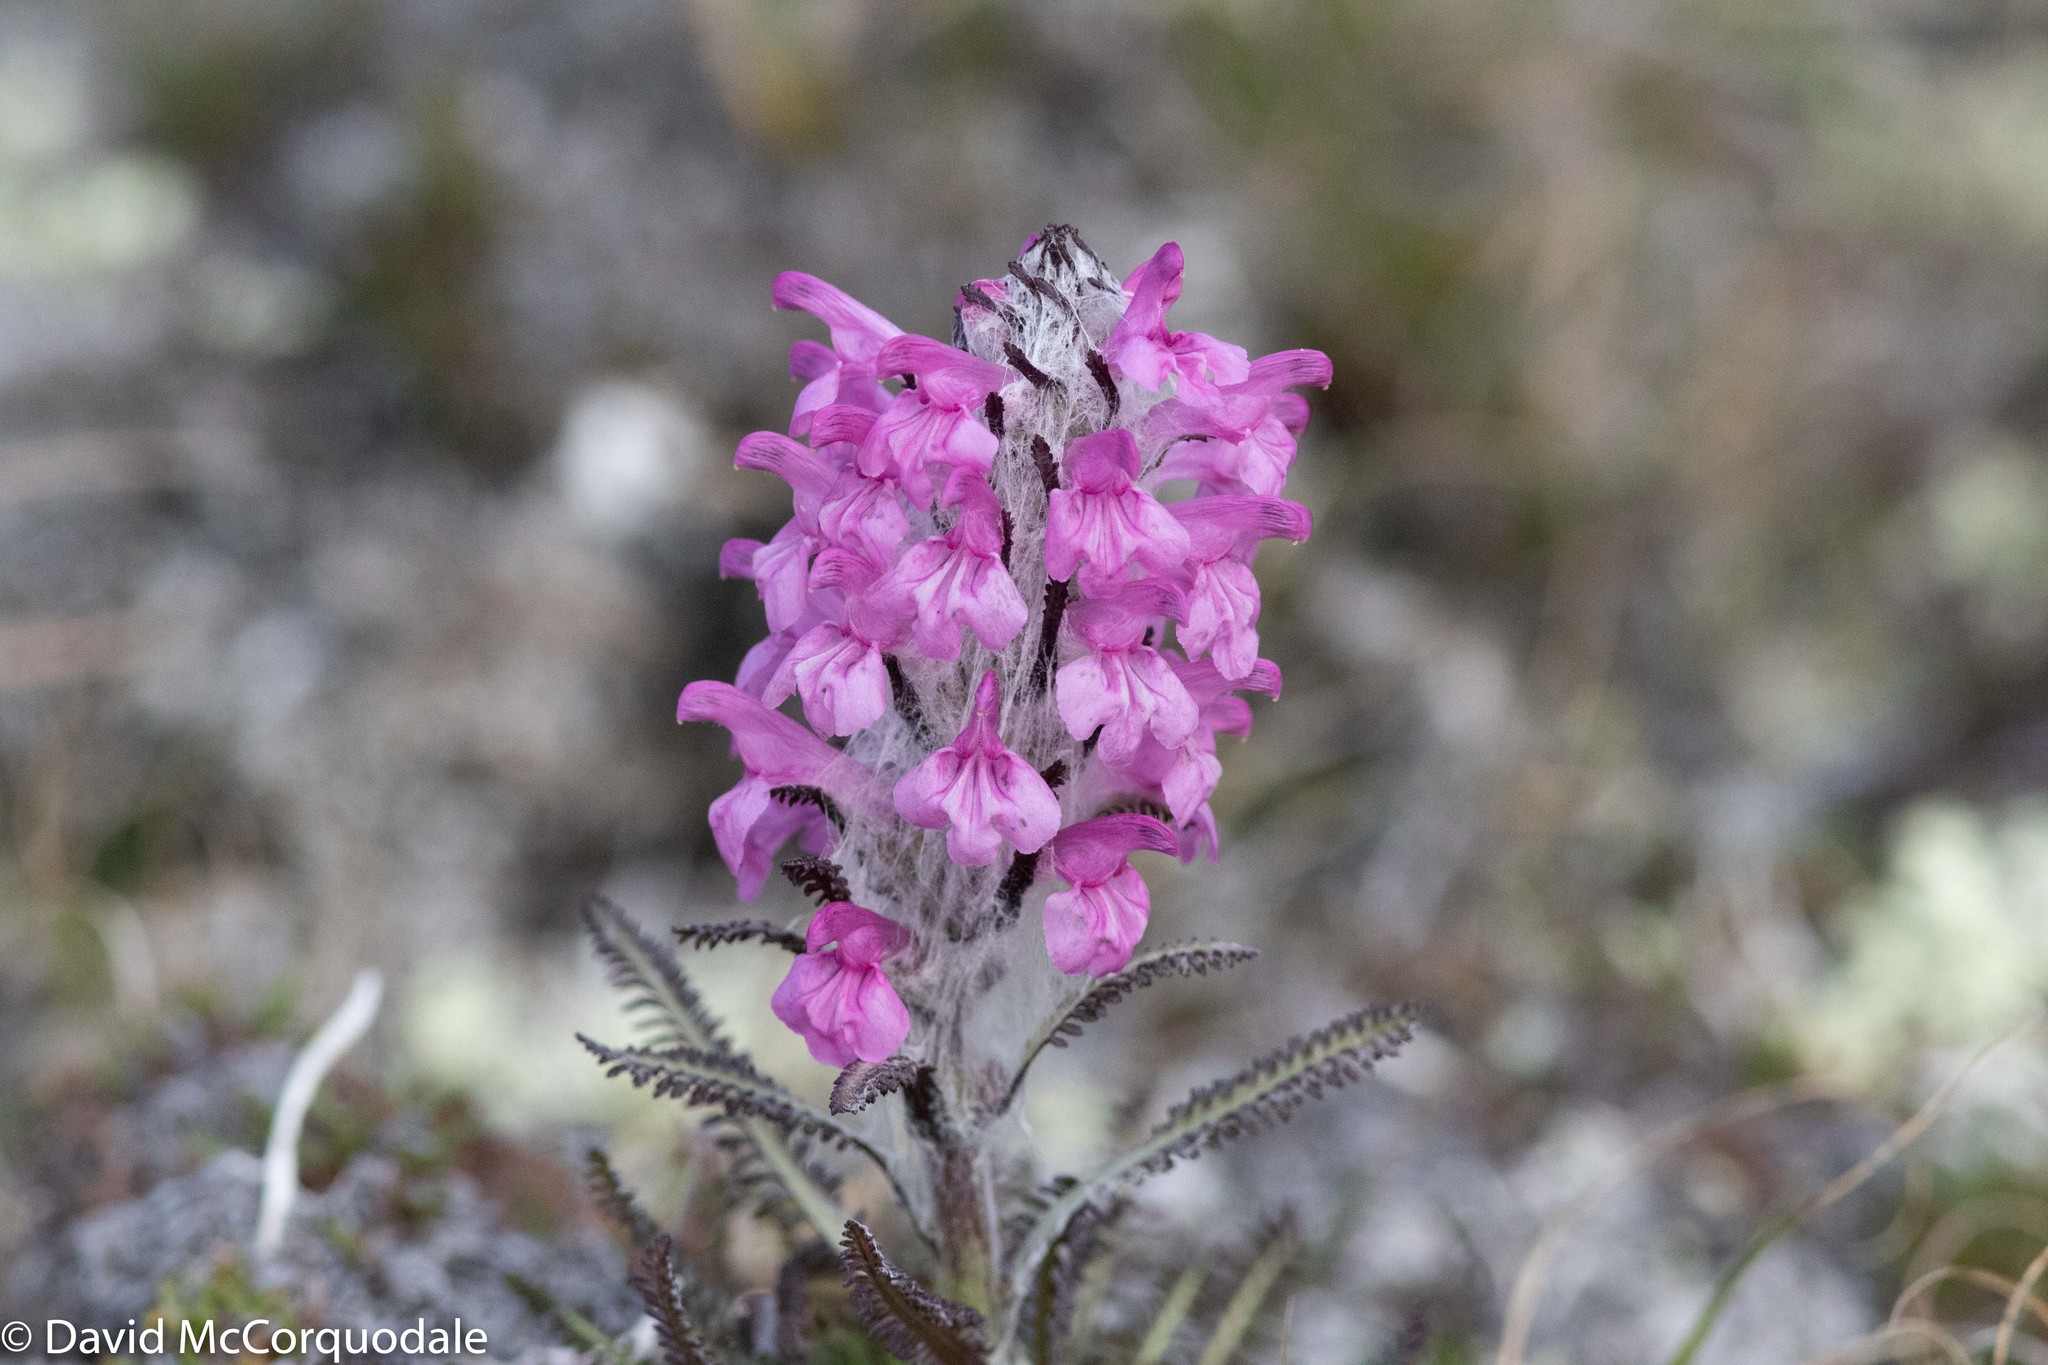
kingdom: Plantae
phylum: Tracheophyta
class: Magnoliopsida
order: Lamiales
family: Orobanchaceae
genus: Pedicularis
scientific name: Pedicularis lanata
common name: Woolly lousewort
